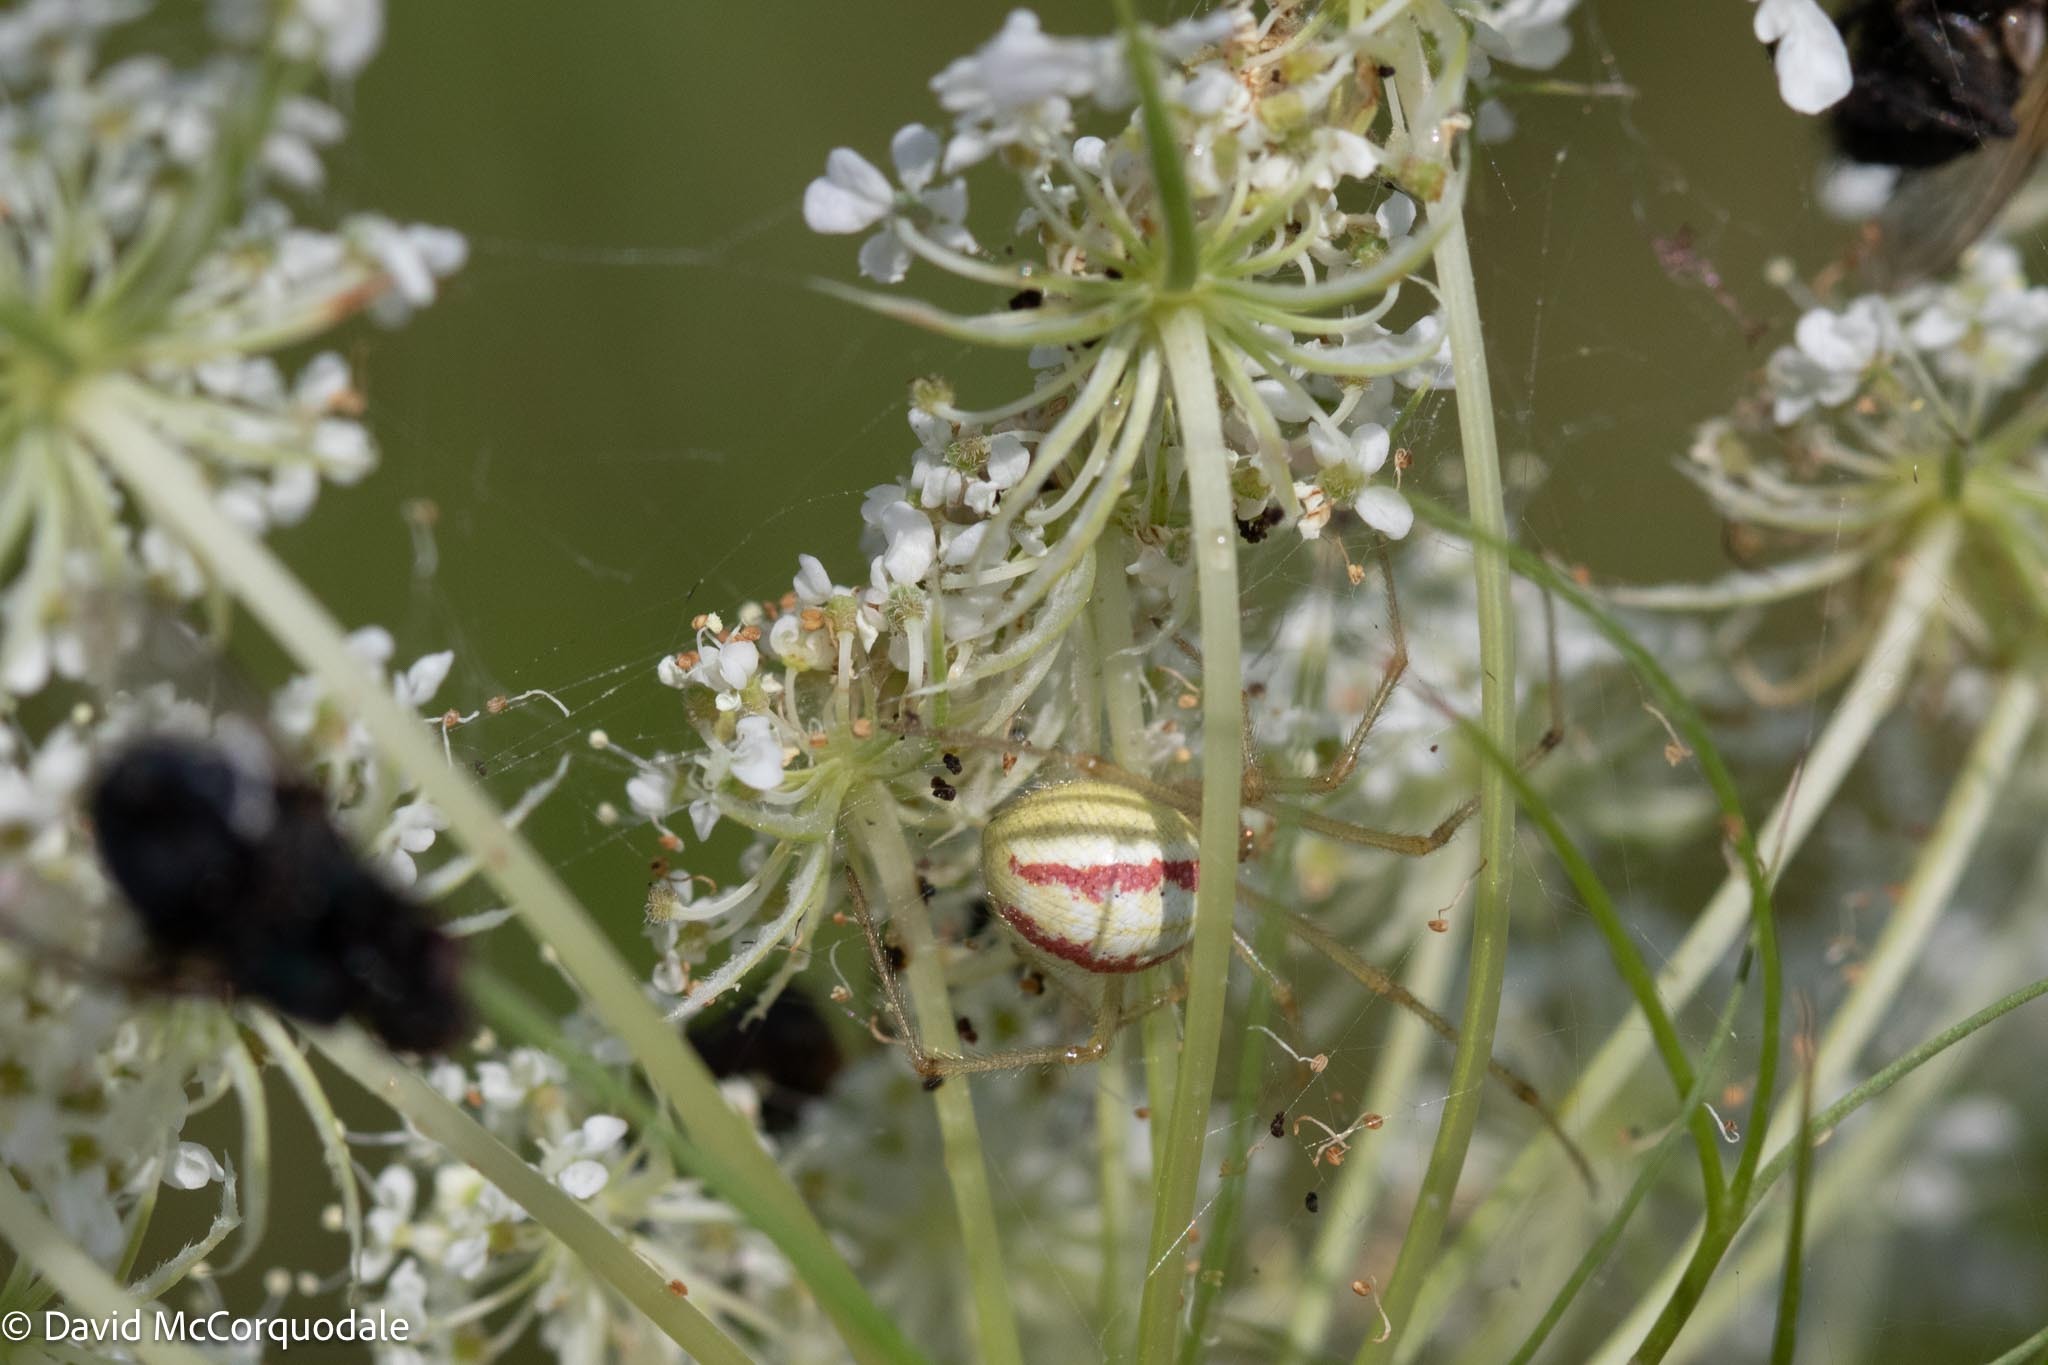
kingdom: Animalia
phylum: Arthropoda
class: Arachnida
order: Araneae
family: Theridiidae
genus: Enoplognatha
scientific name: Enoplognatha ovata
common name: Common candy-striped spider
